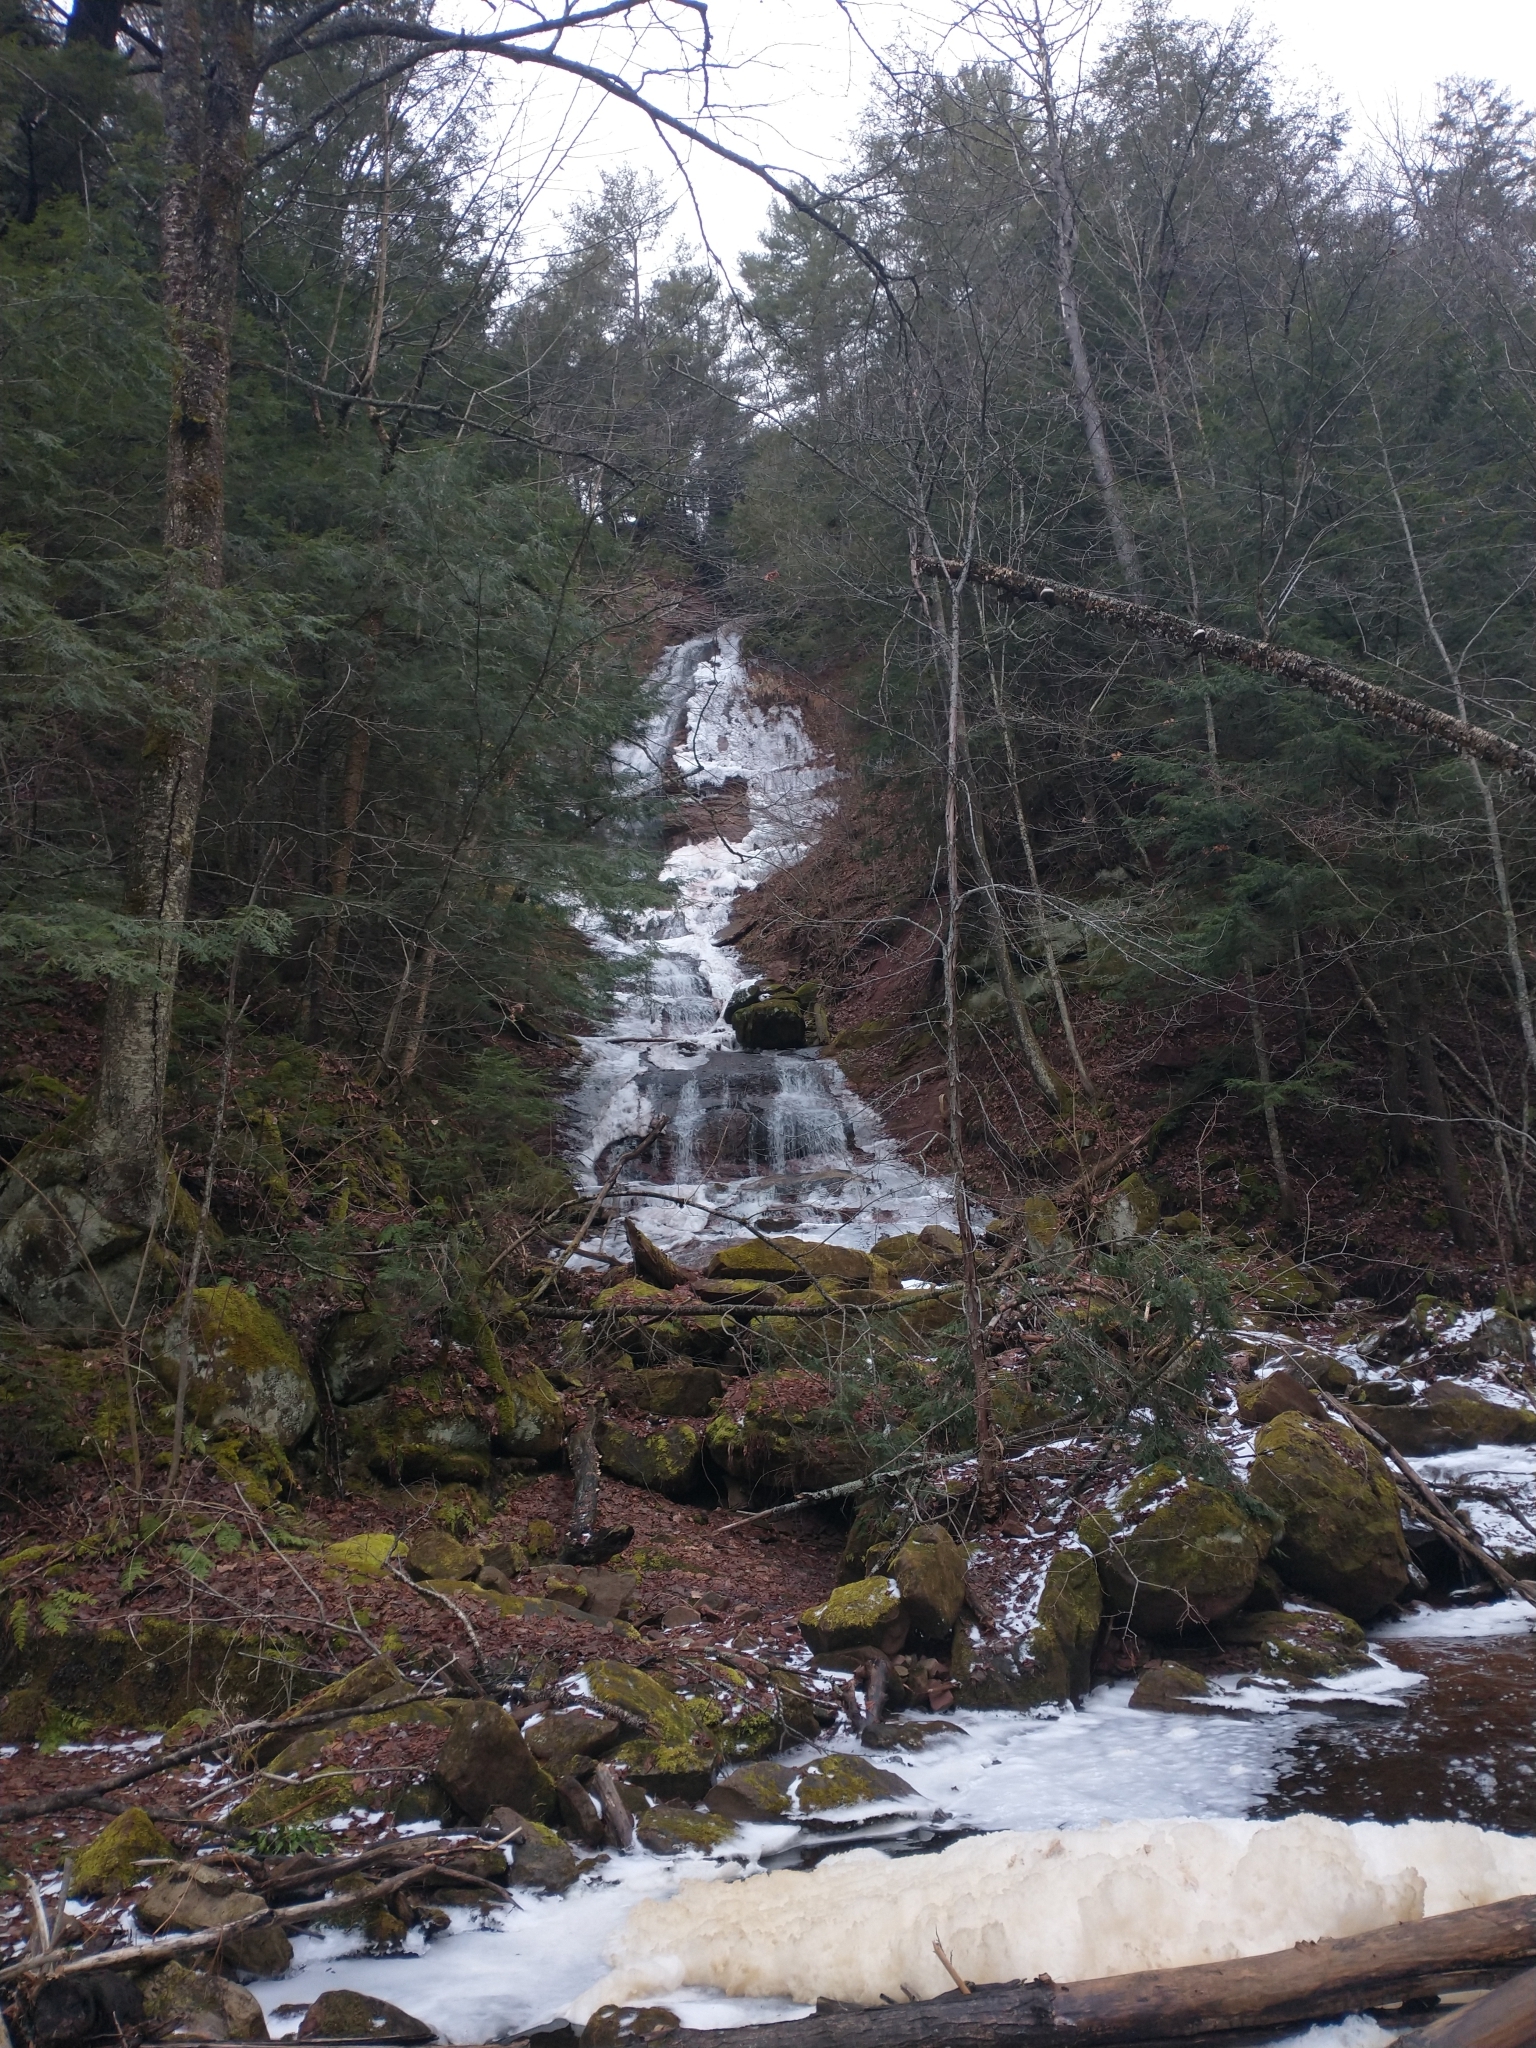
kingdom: Plantae
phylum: Tracheophyta
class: Pinopsida
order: Pinales
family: Pinaceae
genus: Tsuga
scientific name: Tsuga canadensis
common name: Eastern hemlock
